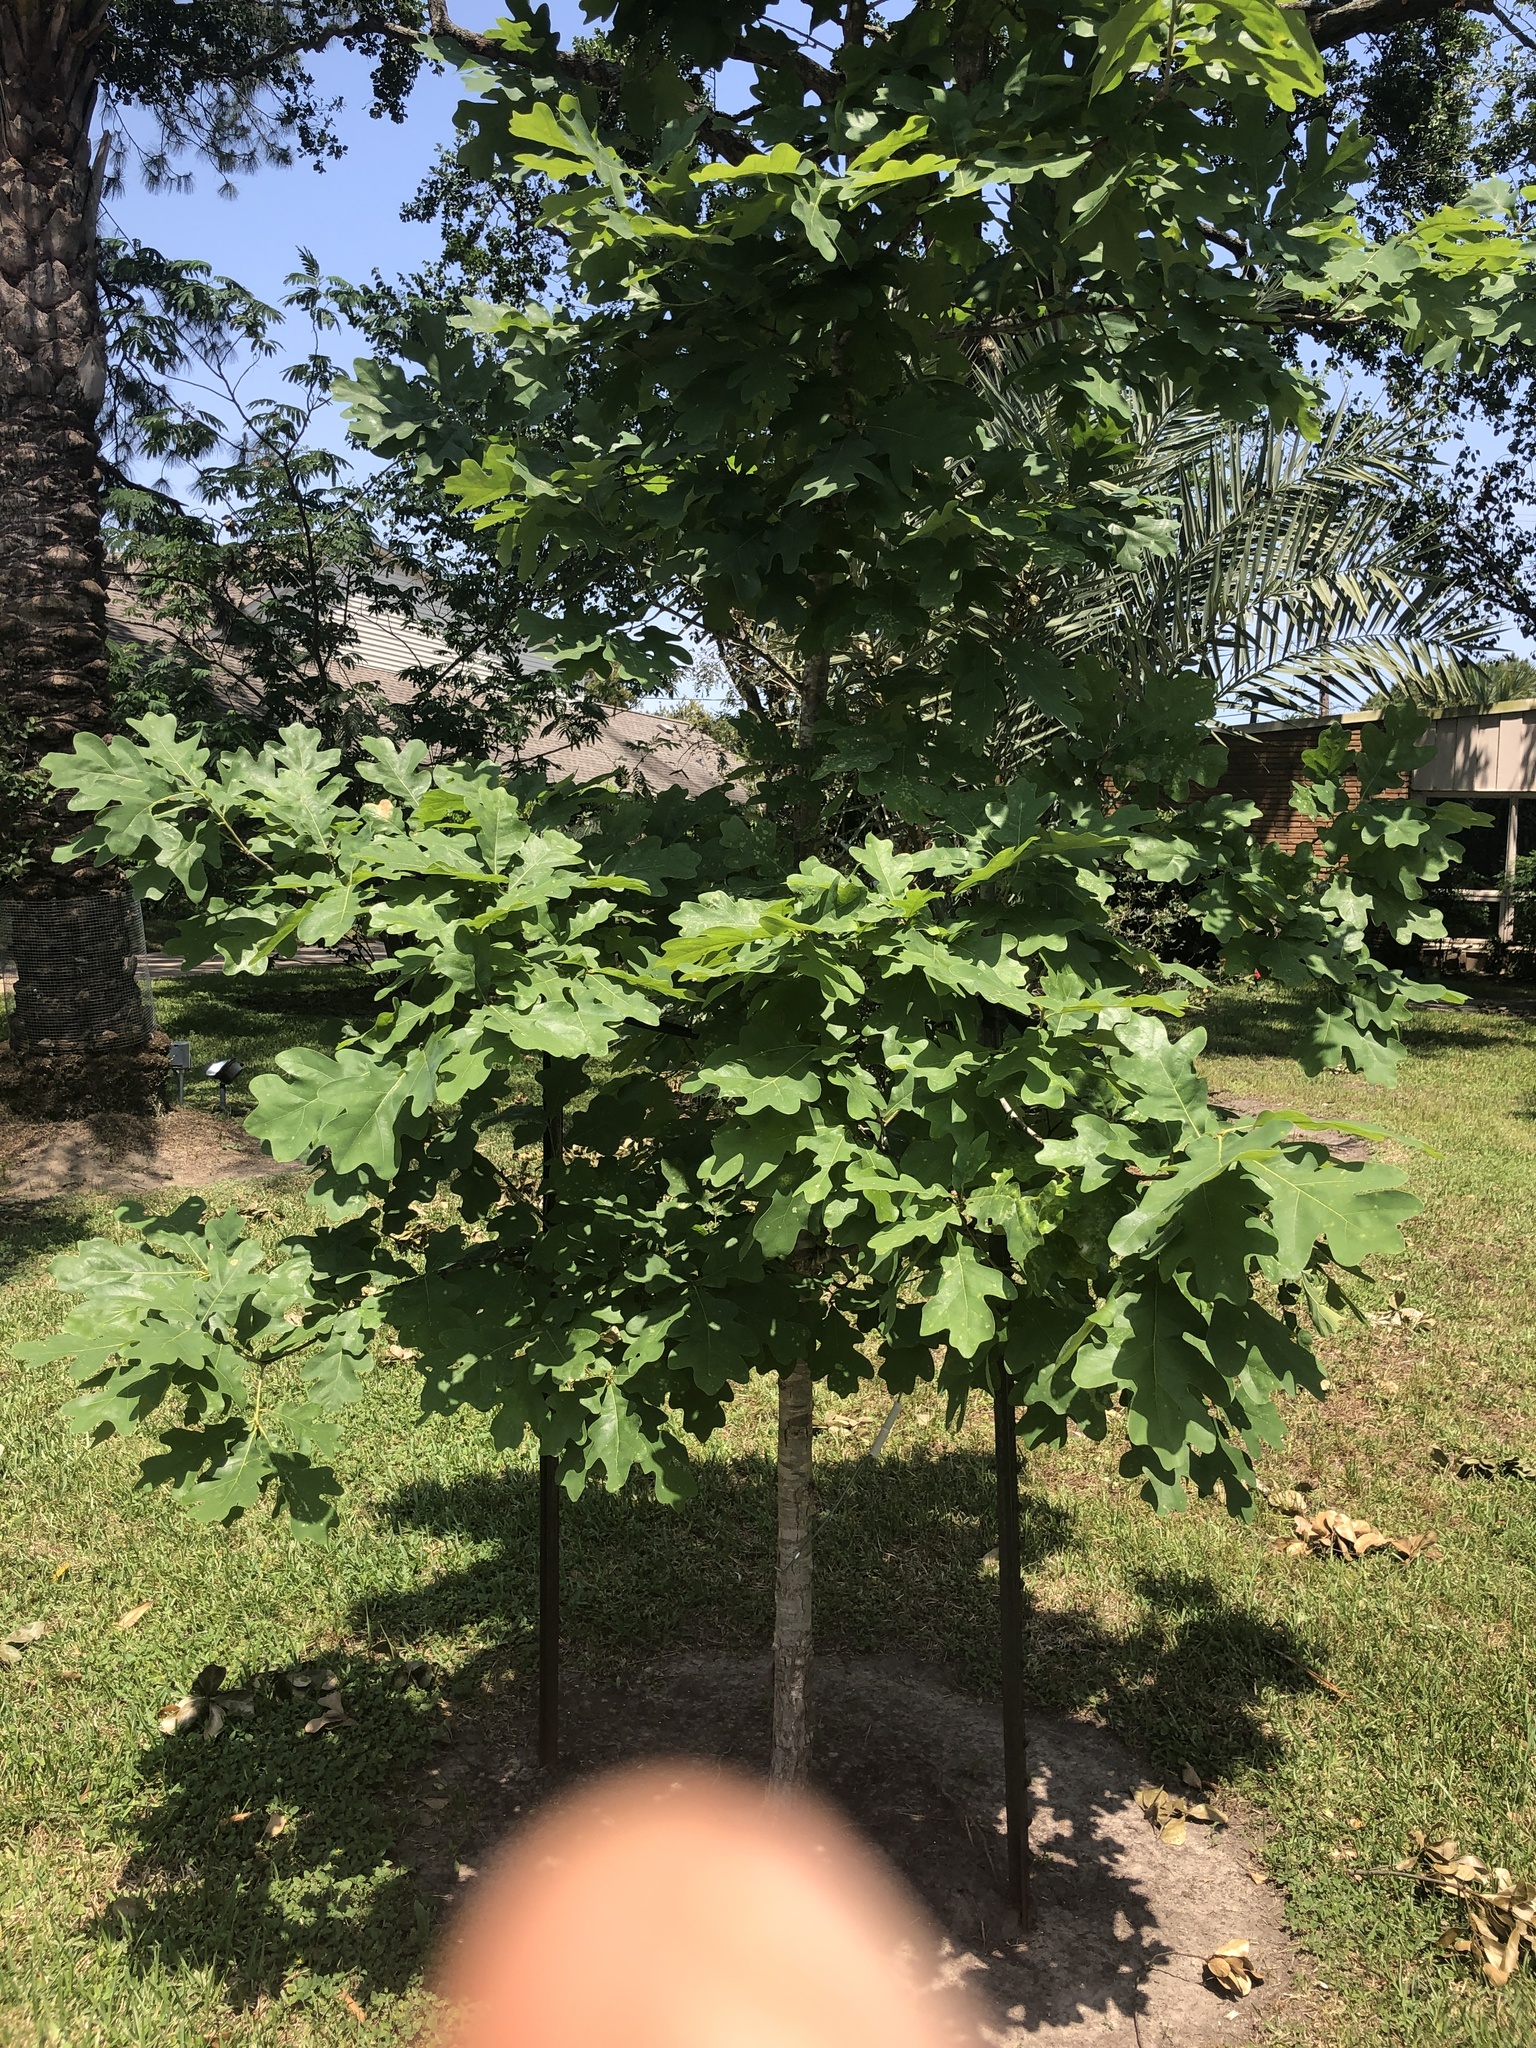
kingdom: Plantae
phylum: Tracheophyta
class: Magnoliopsida
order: Fagales
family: Fagaceae
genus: Quercus
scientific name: Quercus alba
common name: White oak
